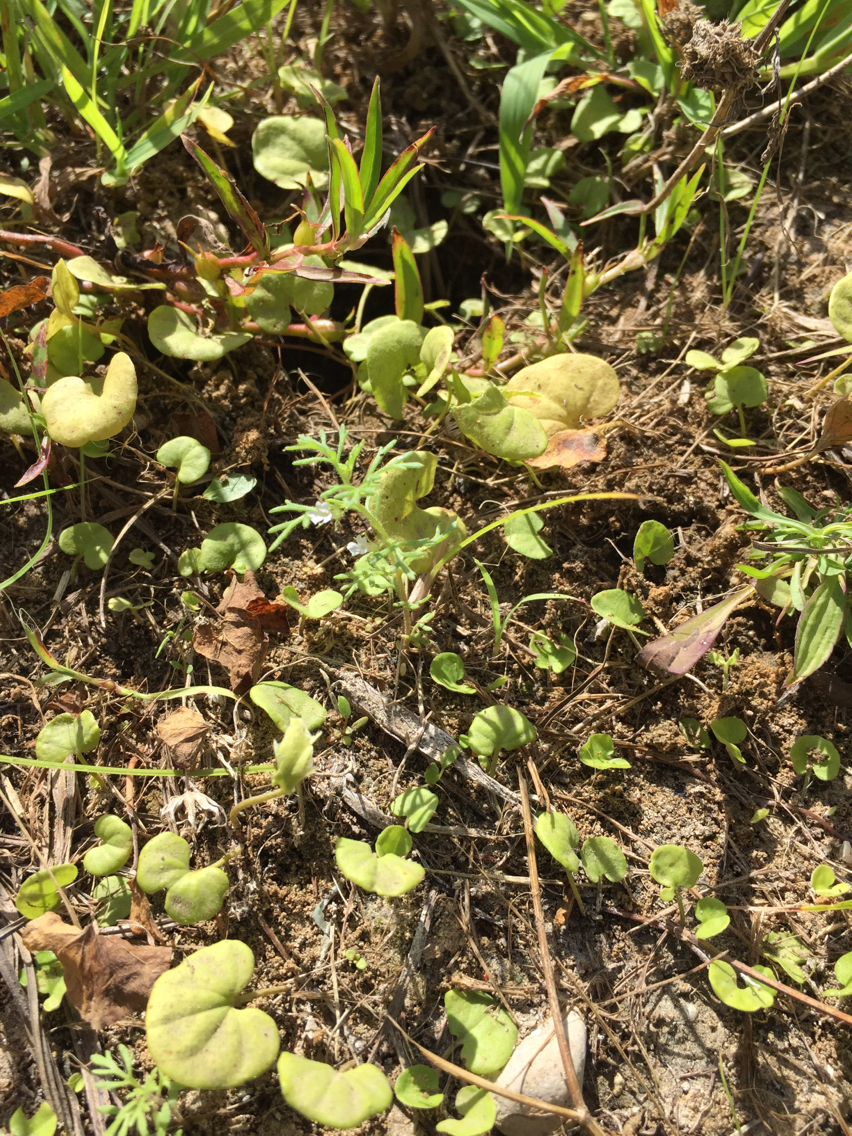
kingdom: Plantae
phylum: Tracheophyta
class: Magnoliopsida
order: Lamiales
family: Plantaginaceae
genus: Leucospora
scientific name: Leucospora multifida
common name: Narrow-leaf paleseed
